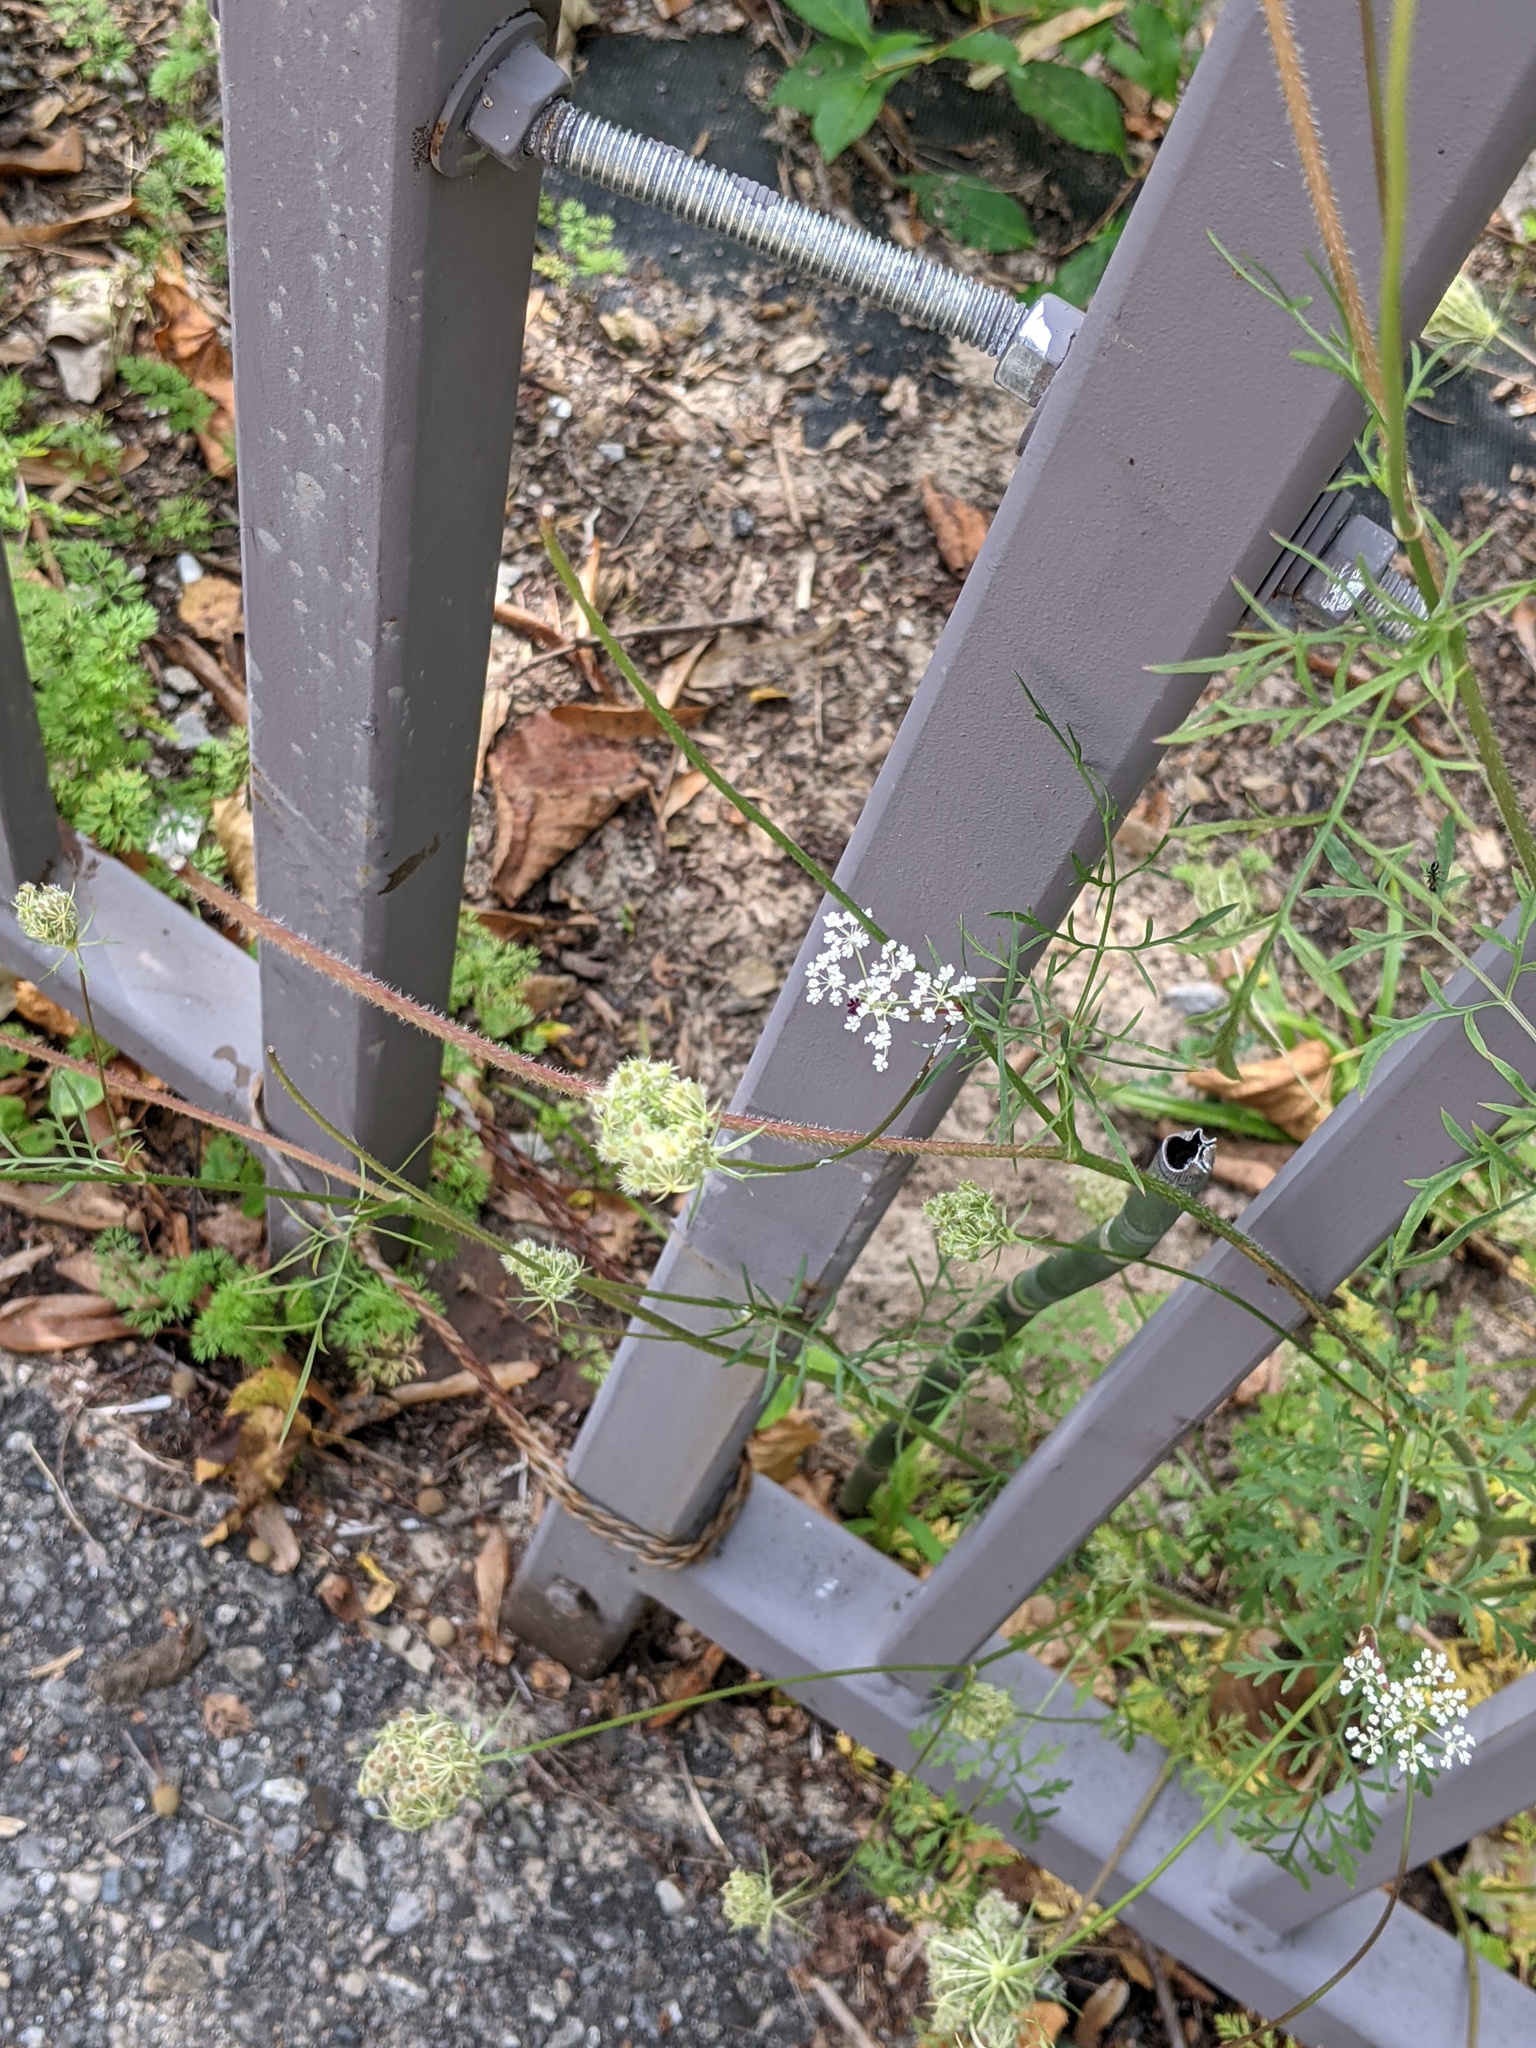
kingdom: Plantae
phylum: Tracheophyta
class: Magnoliopsida
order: Apiales
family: Apiaceae
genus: Daucus
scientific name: Daucus carota
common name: Wild carrot
